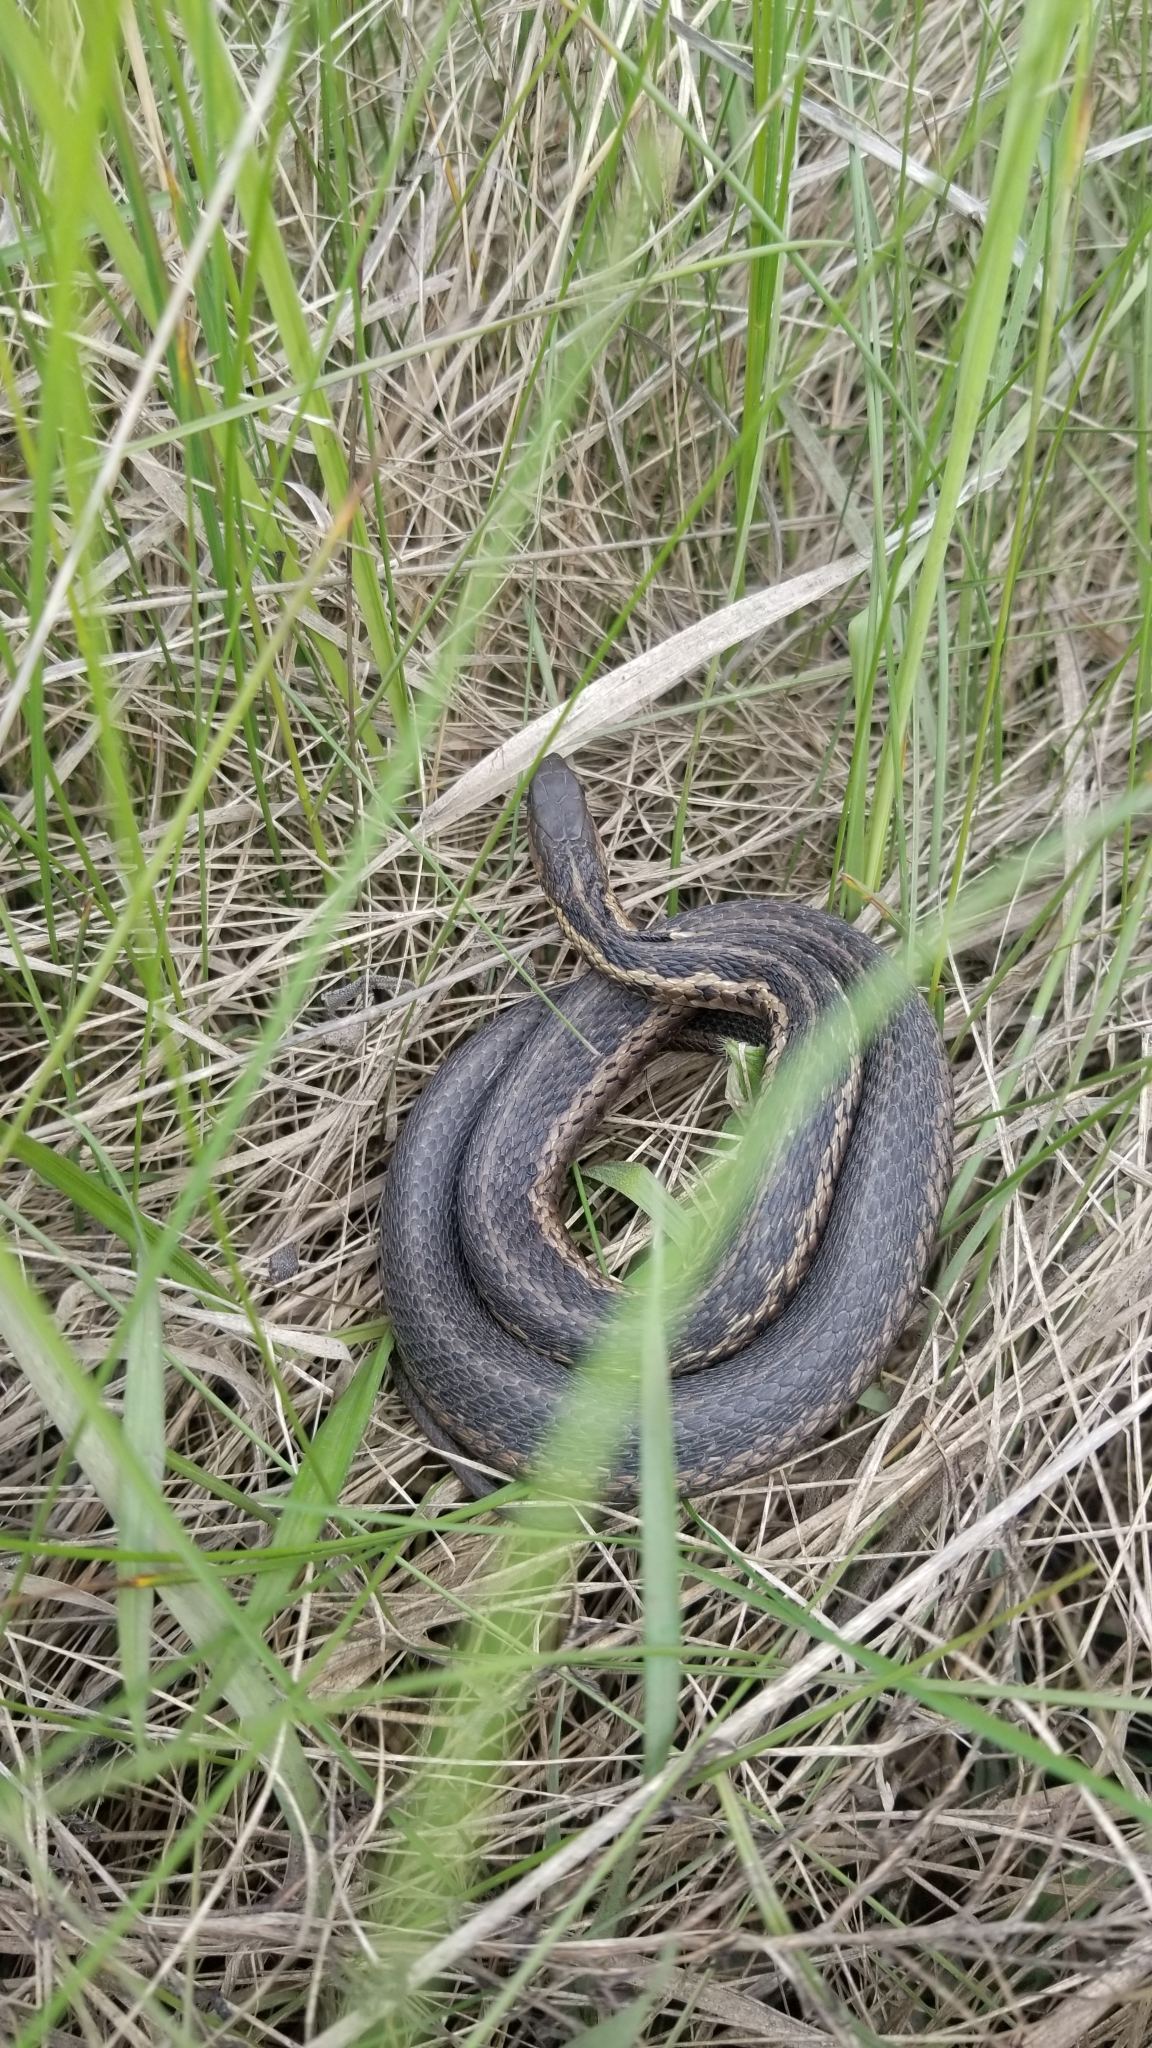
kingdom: Animalia
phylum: Chordata
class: Squamata
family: Colubridae
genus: Thamnophis
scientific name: Thamnophis sirtalis
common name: Common garter snake
